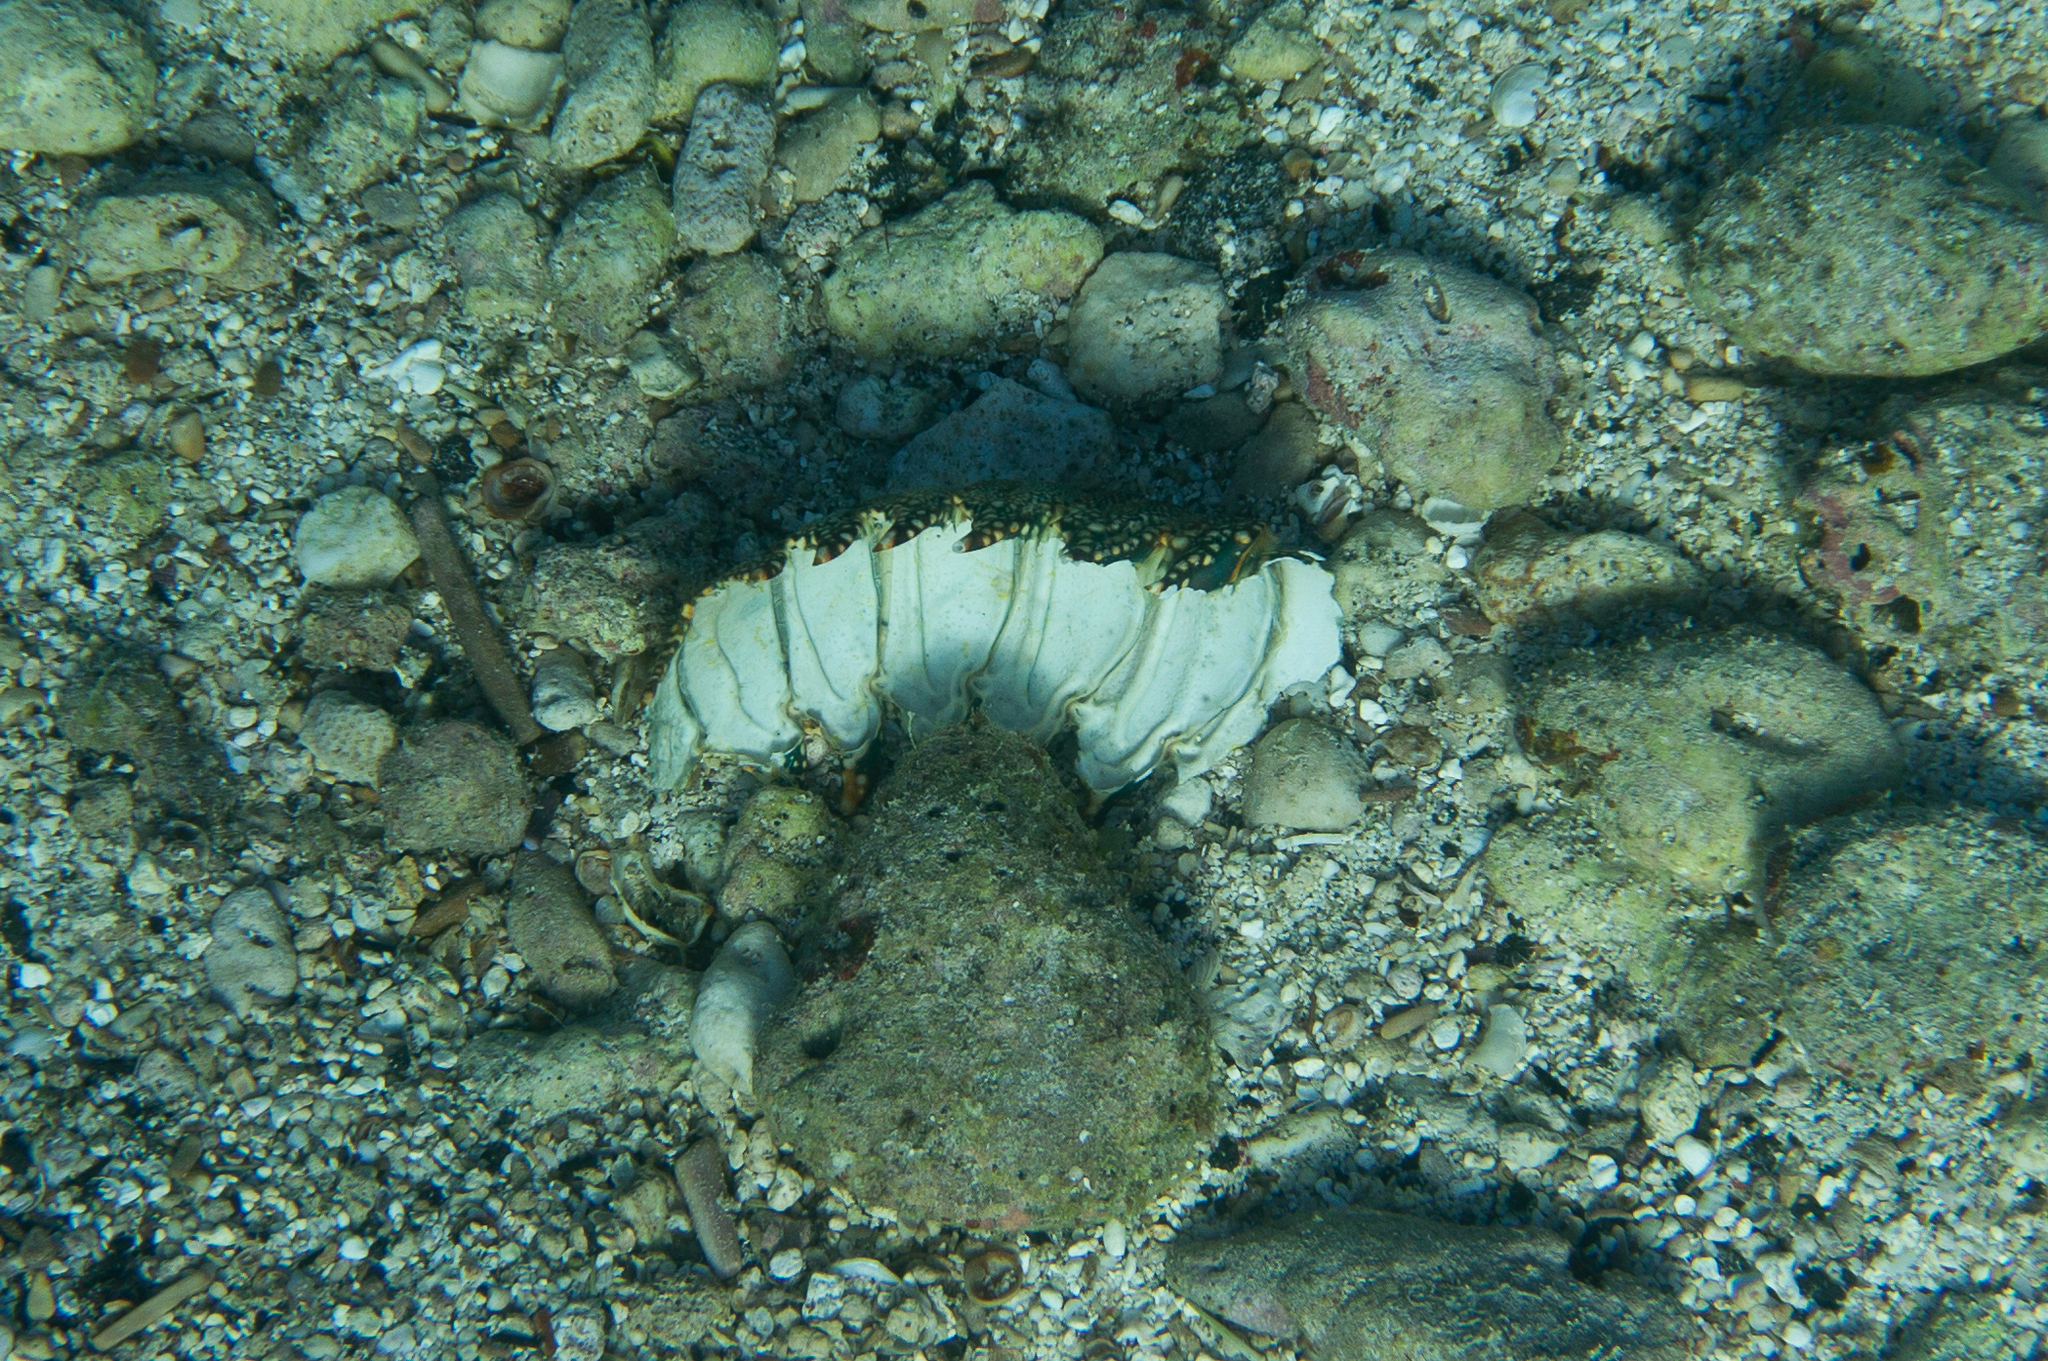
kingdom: Animalia
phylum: Arthropoda
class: Malacostraca
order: Decapoda
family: Palinuridae
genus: Panulirus
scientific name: Panulirus penicillatus
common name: Pronghorn spiny lobster
